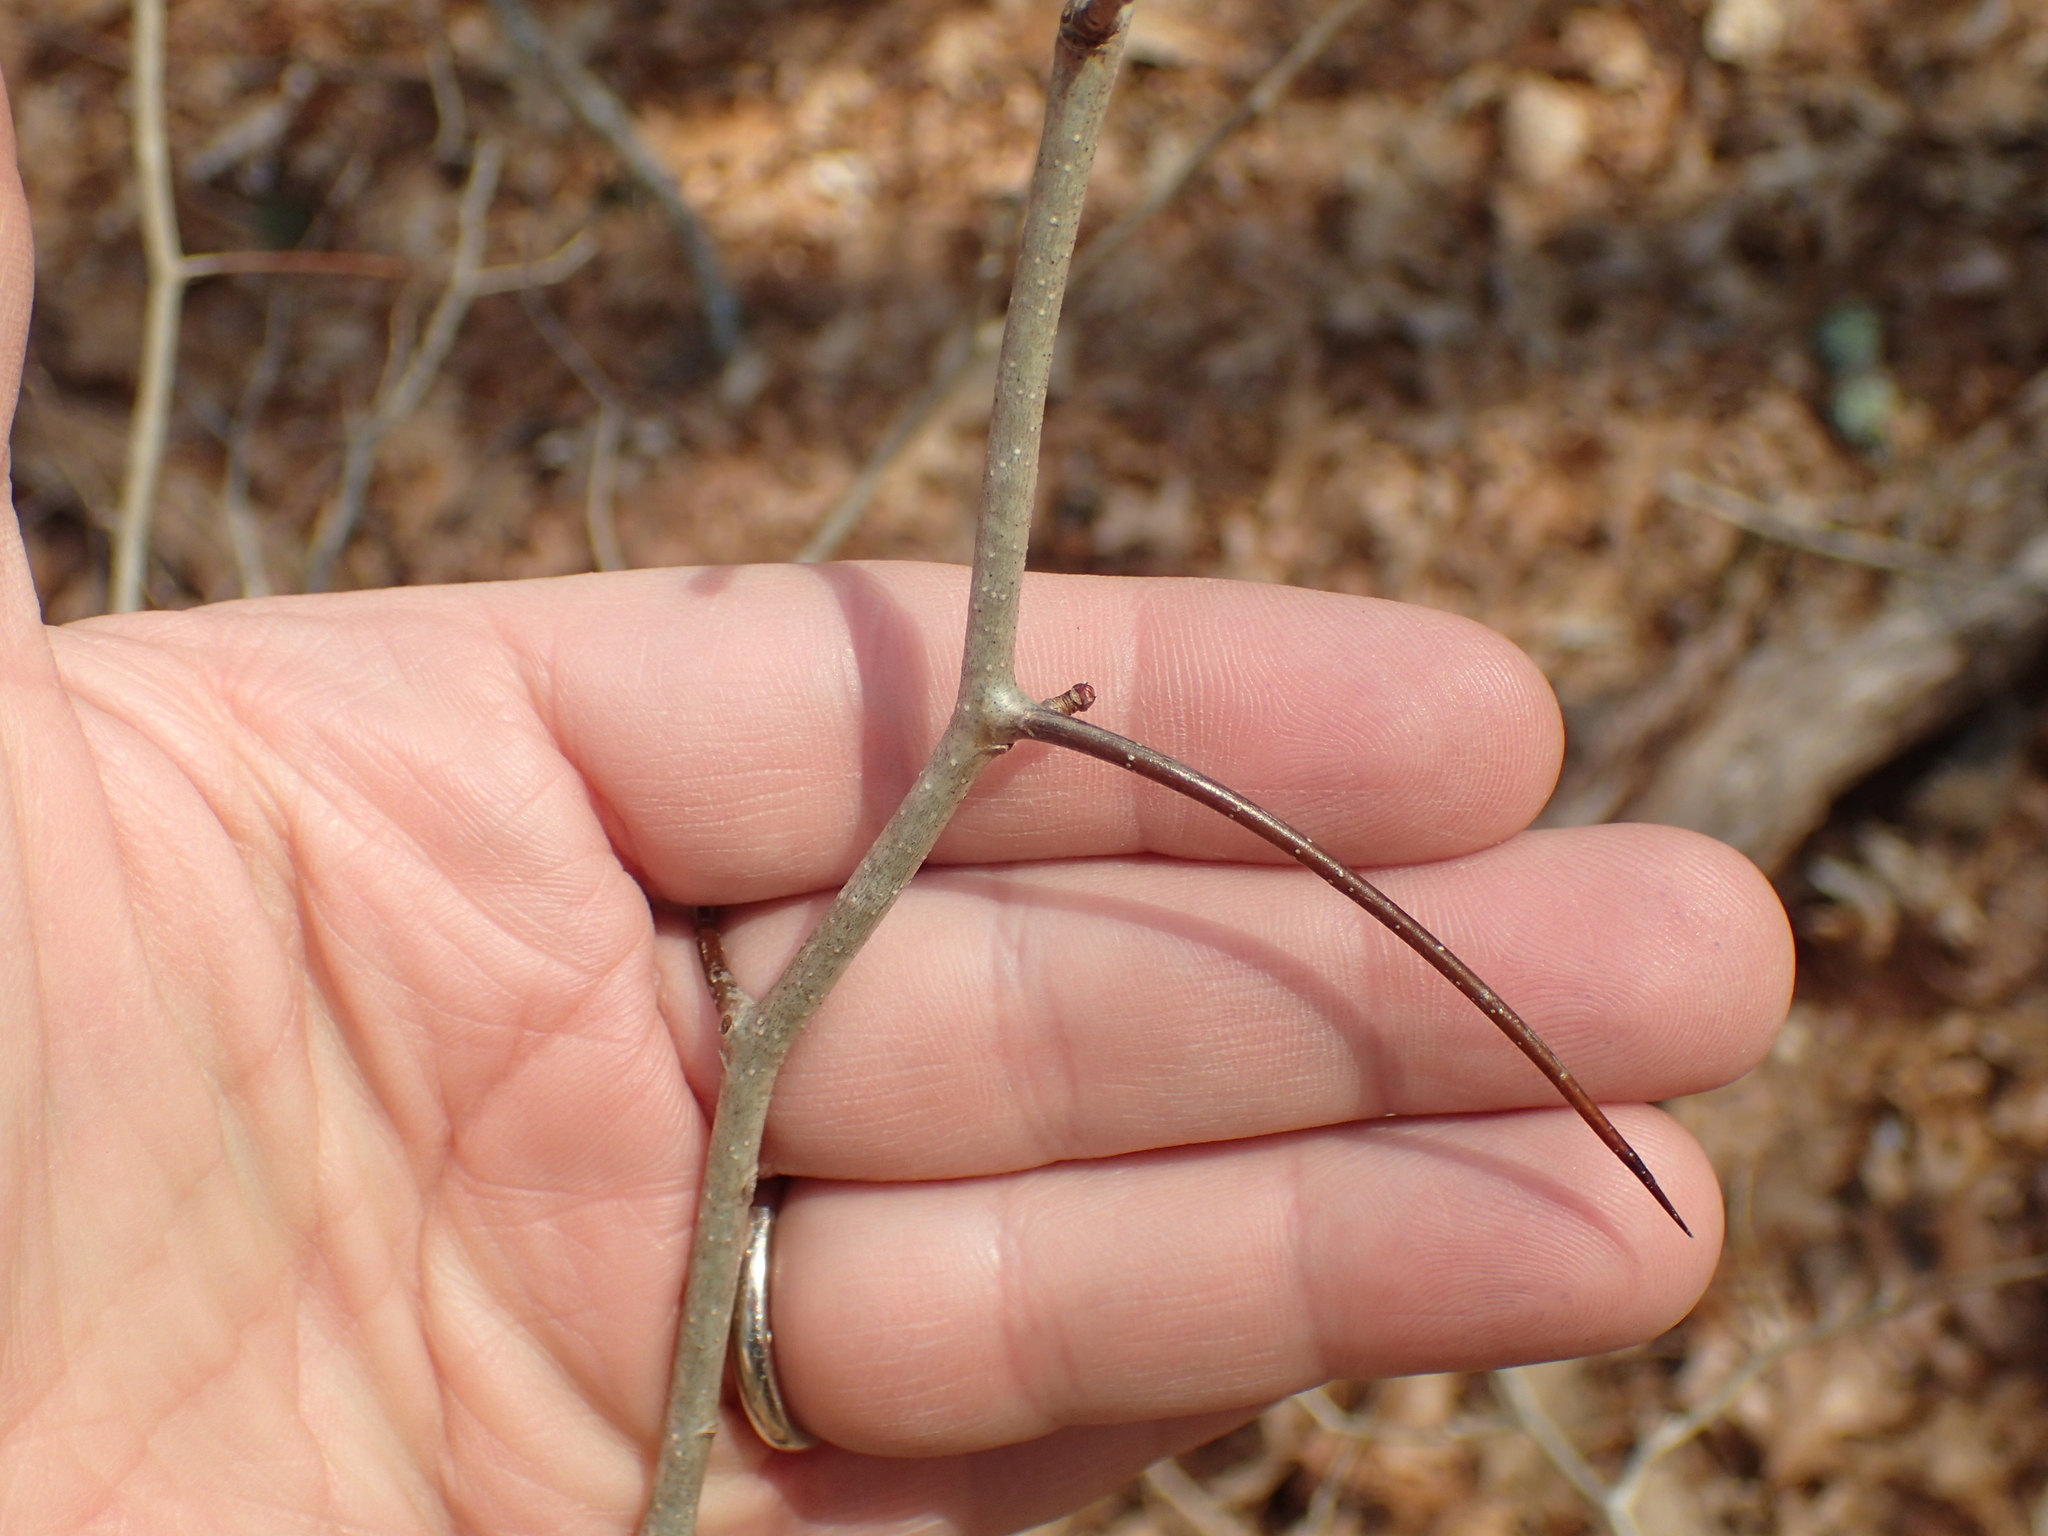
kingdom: Plantae
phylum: Tracheophyta
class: Magnoliopsida
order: Rosales
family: Rosaceae
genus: Crataegus
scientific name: Crataegus
